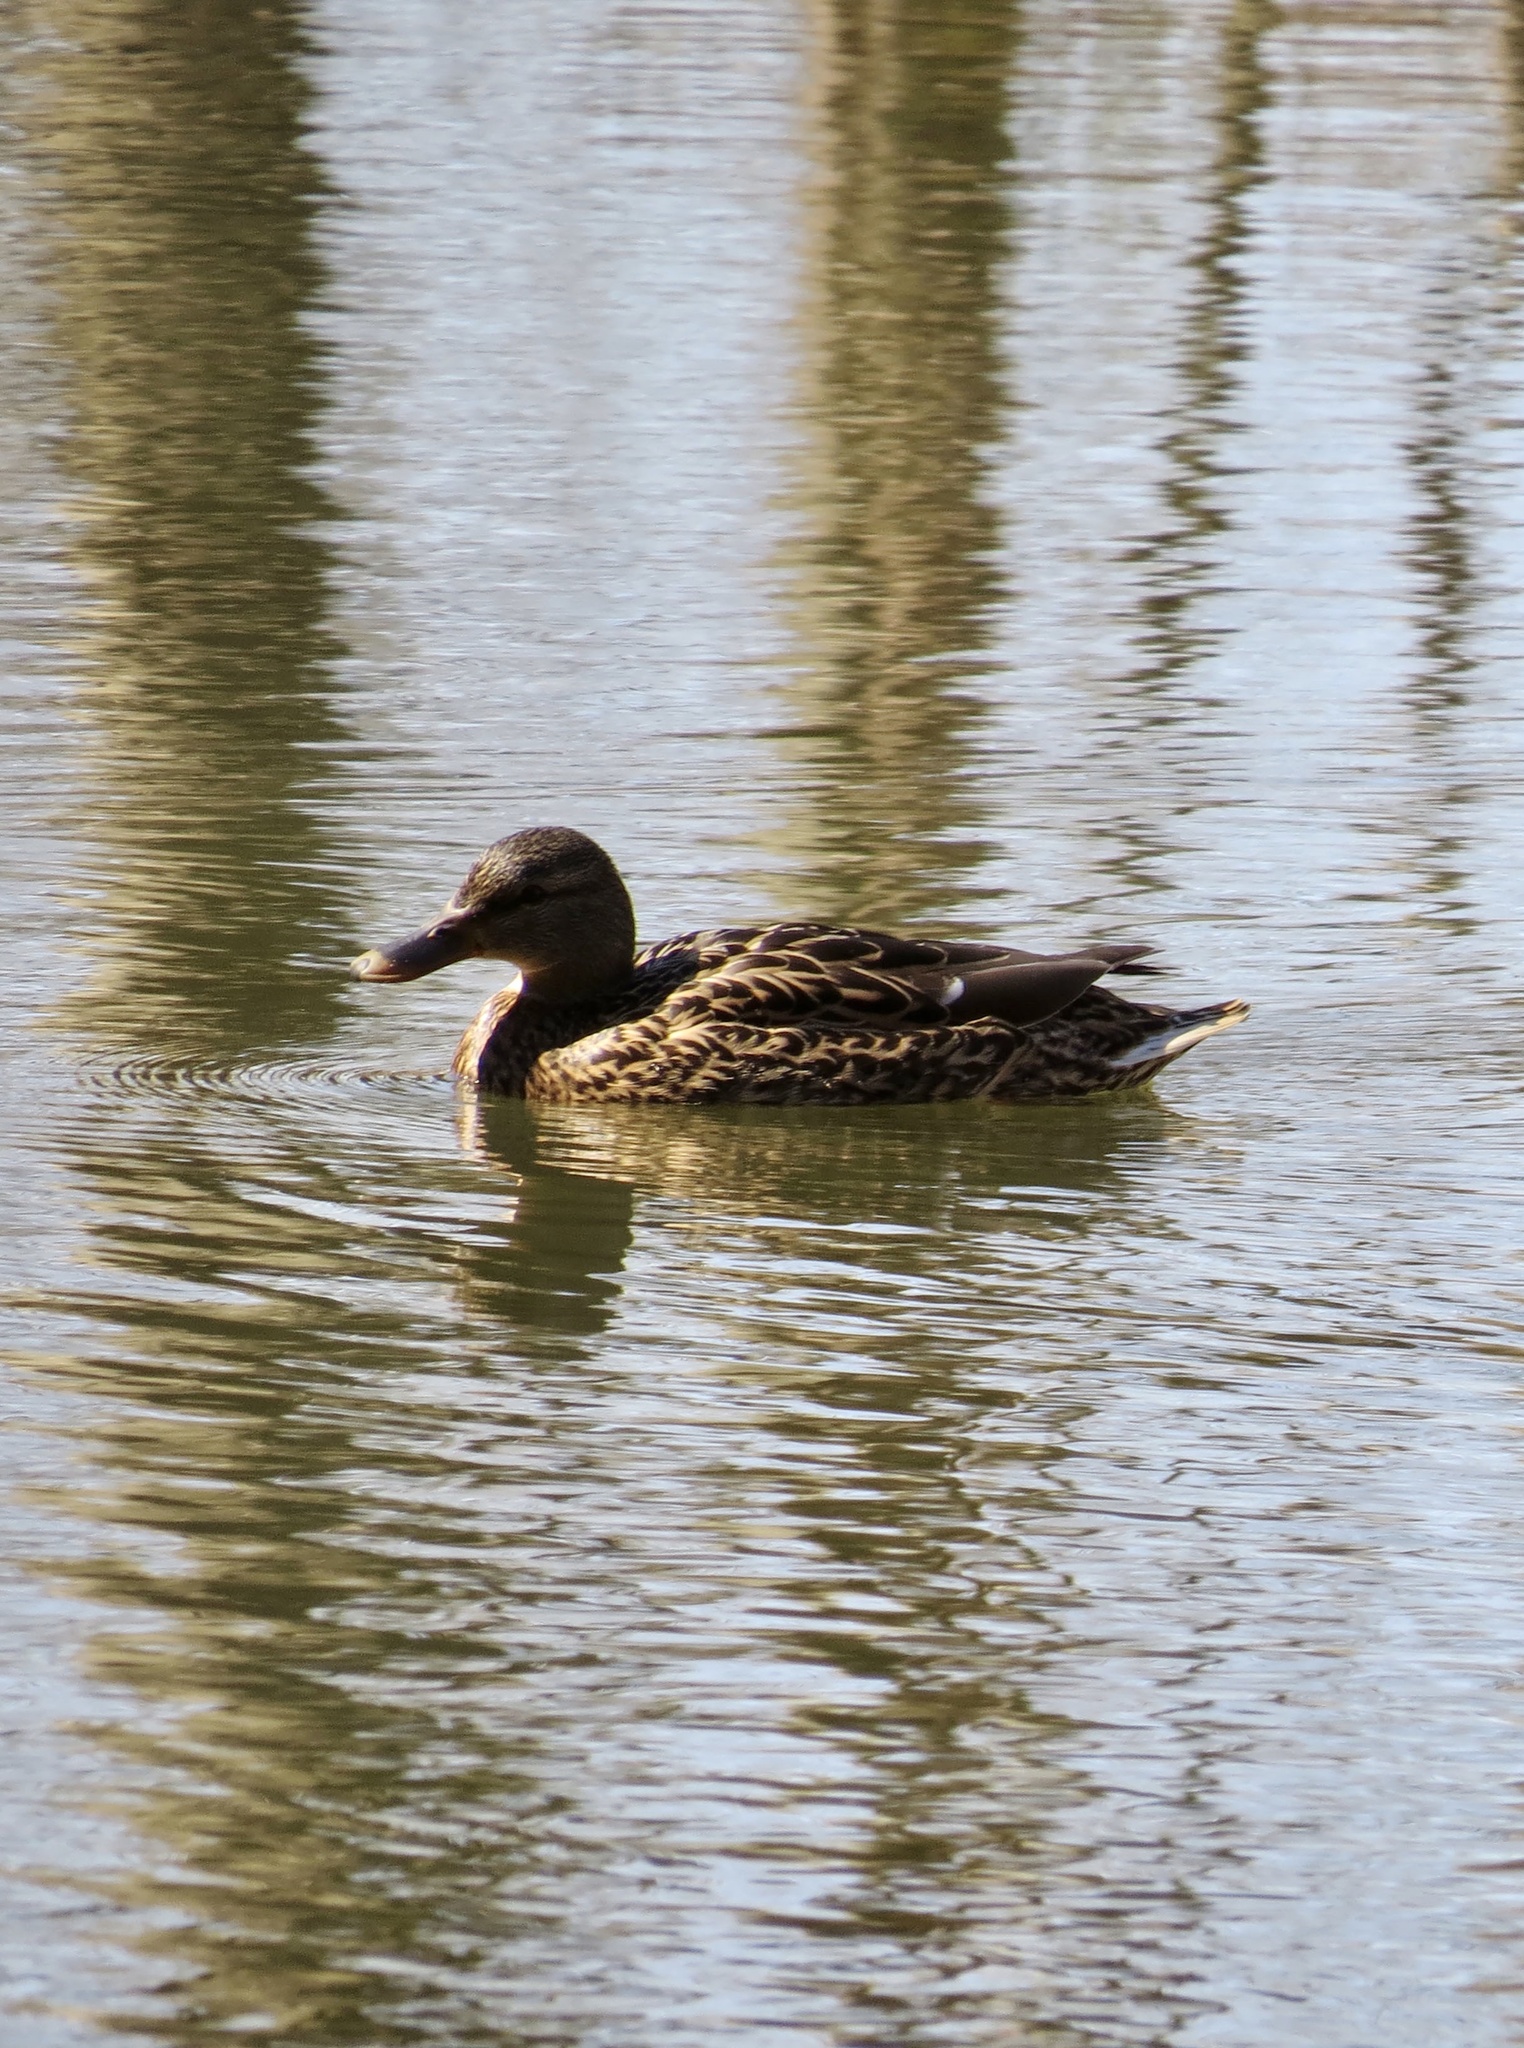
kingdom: Animalia
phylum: Chordata
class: Aves
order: Anseriformes
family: Anatidae
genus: Anas
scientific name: Anas platyrhynchos
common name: Mallard
